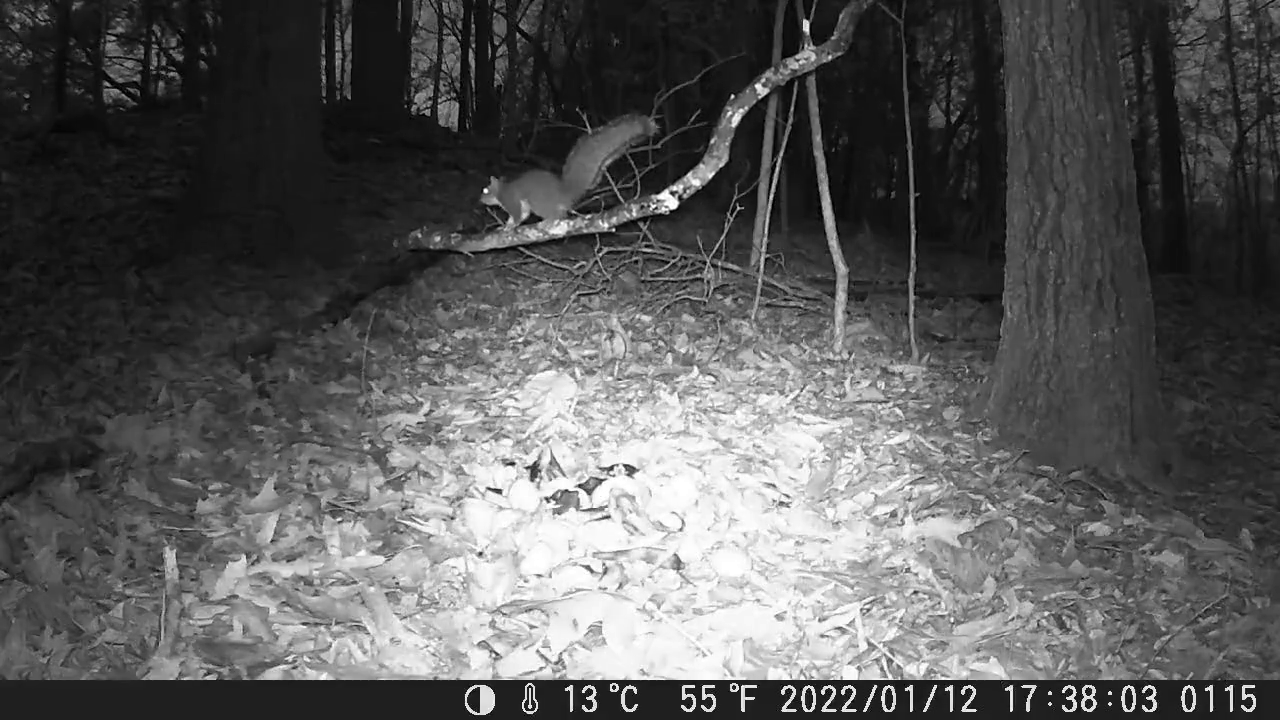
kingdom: Animalia
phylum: Chordata
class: Mammalia
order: Rodentia
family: Sciuridae
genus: Sciurus
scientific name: Sciurus carolinensis
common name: Eastern gray squirrel
